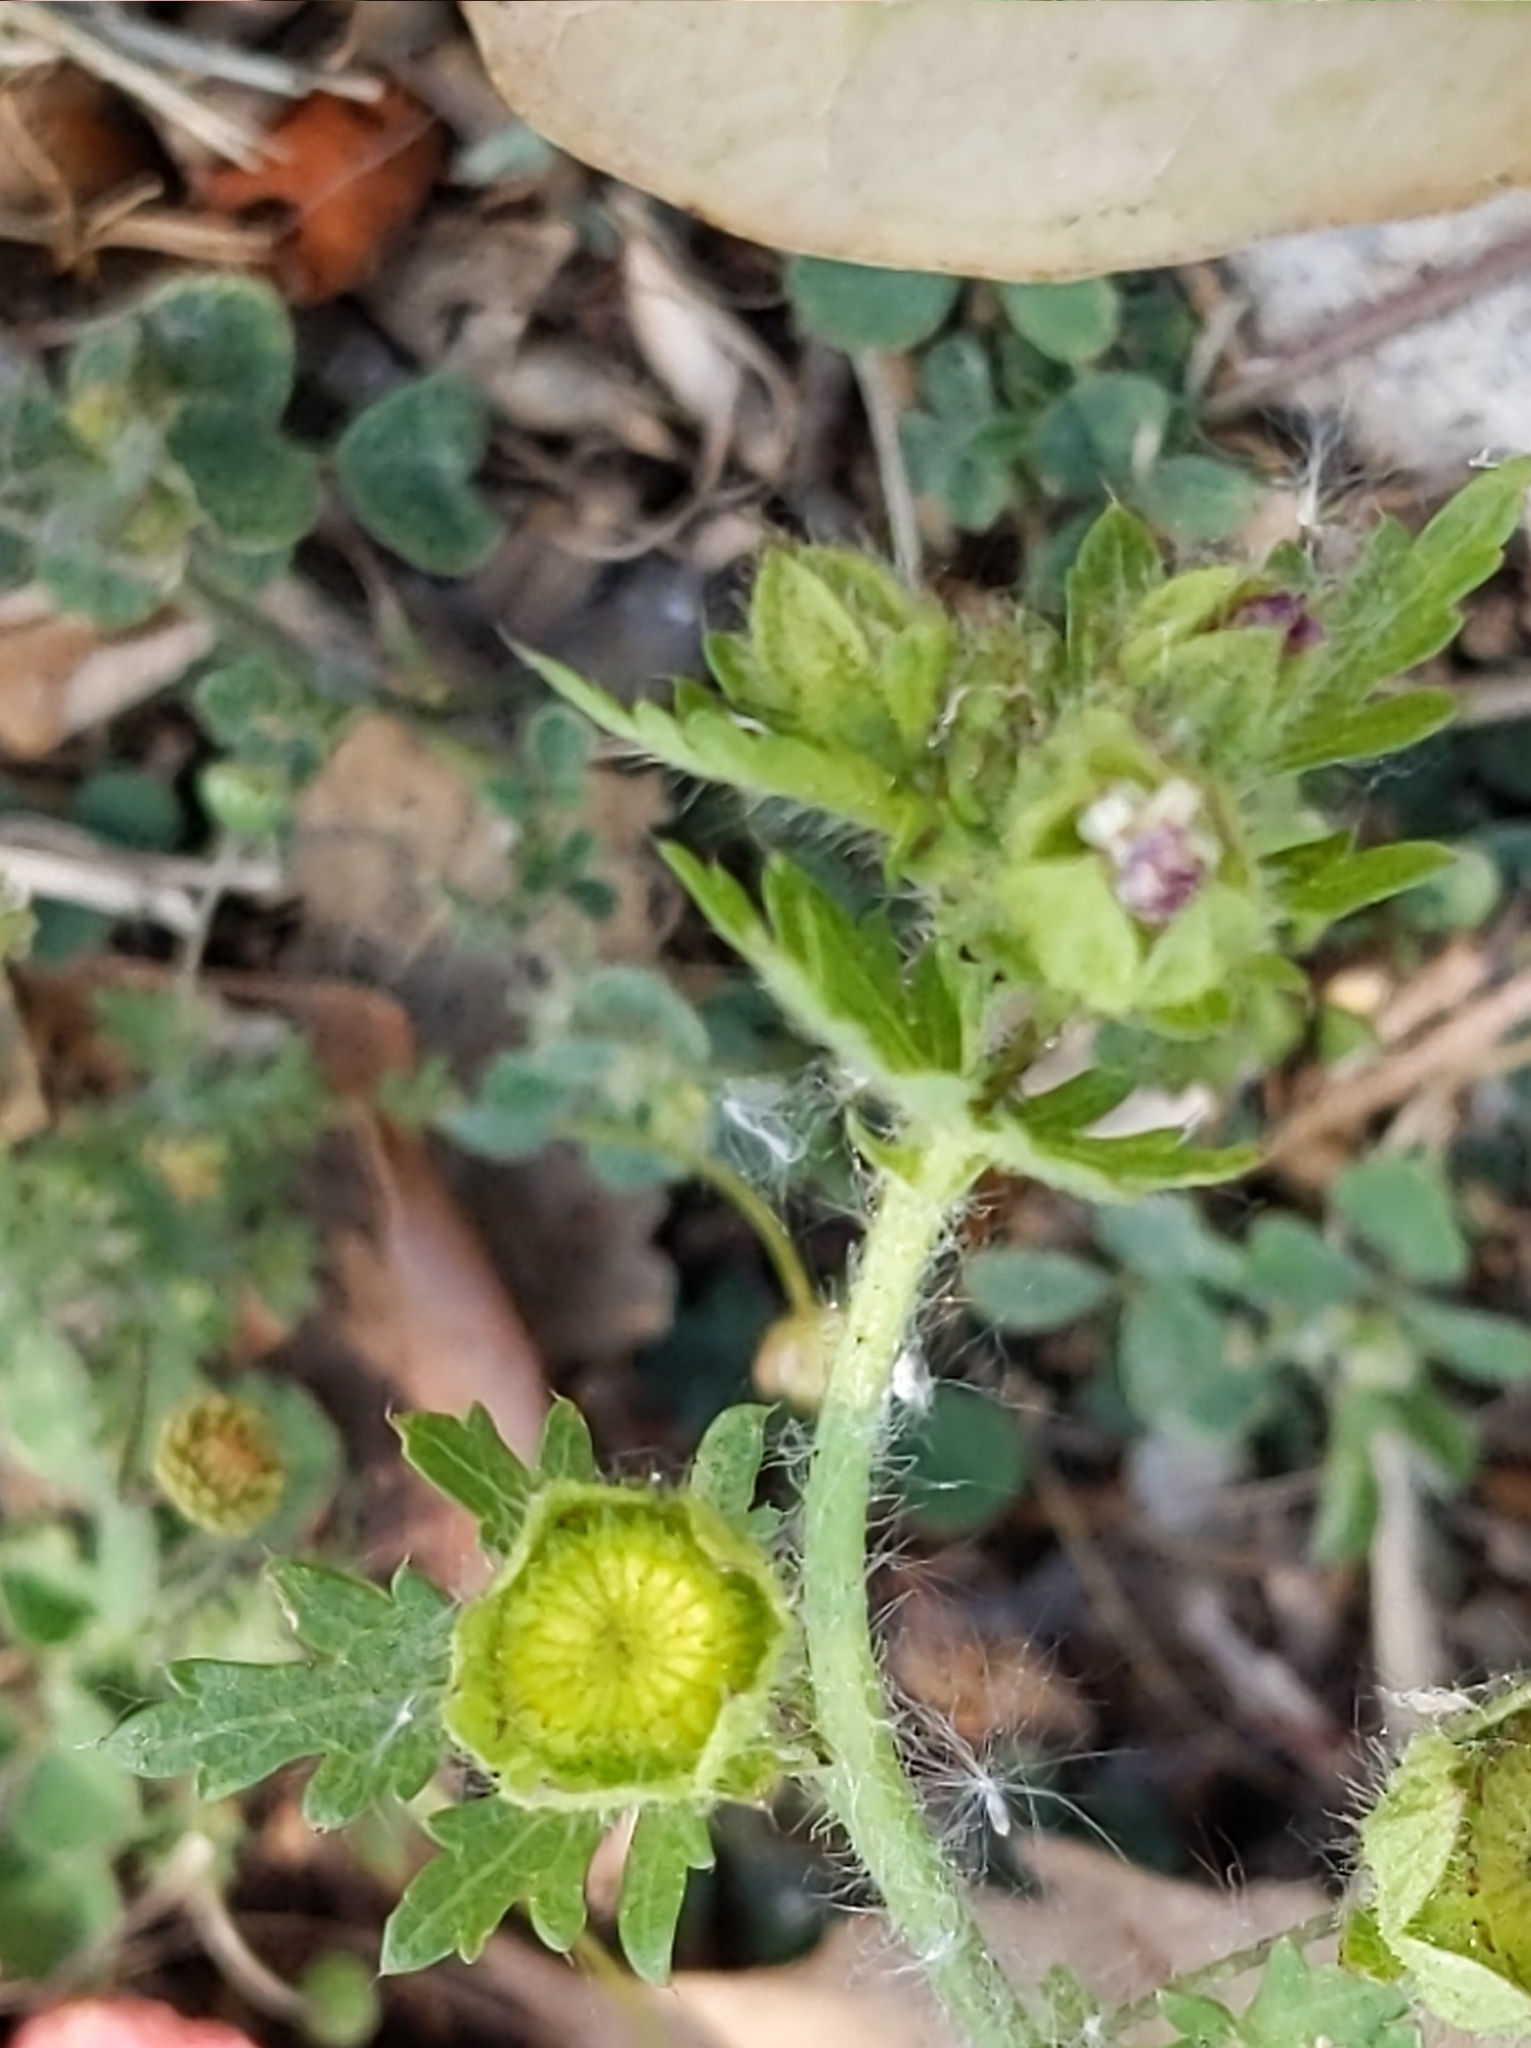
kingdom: Plantae
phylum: Tracheophyta
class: Magnoliopsida
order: Malvales
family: Malvaceae
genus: Modiola
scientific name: Modiola caroliniana
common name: Carolina bristlemallow
